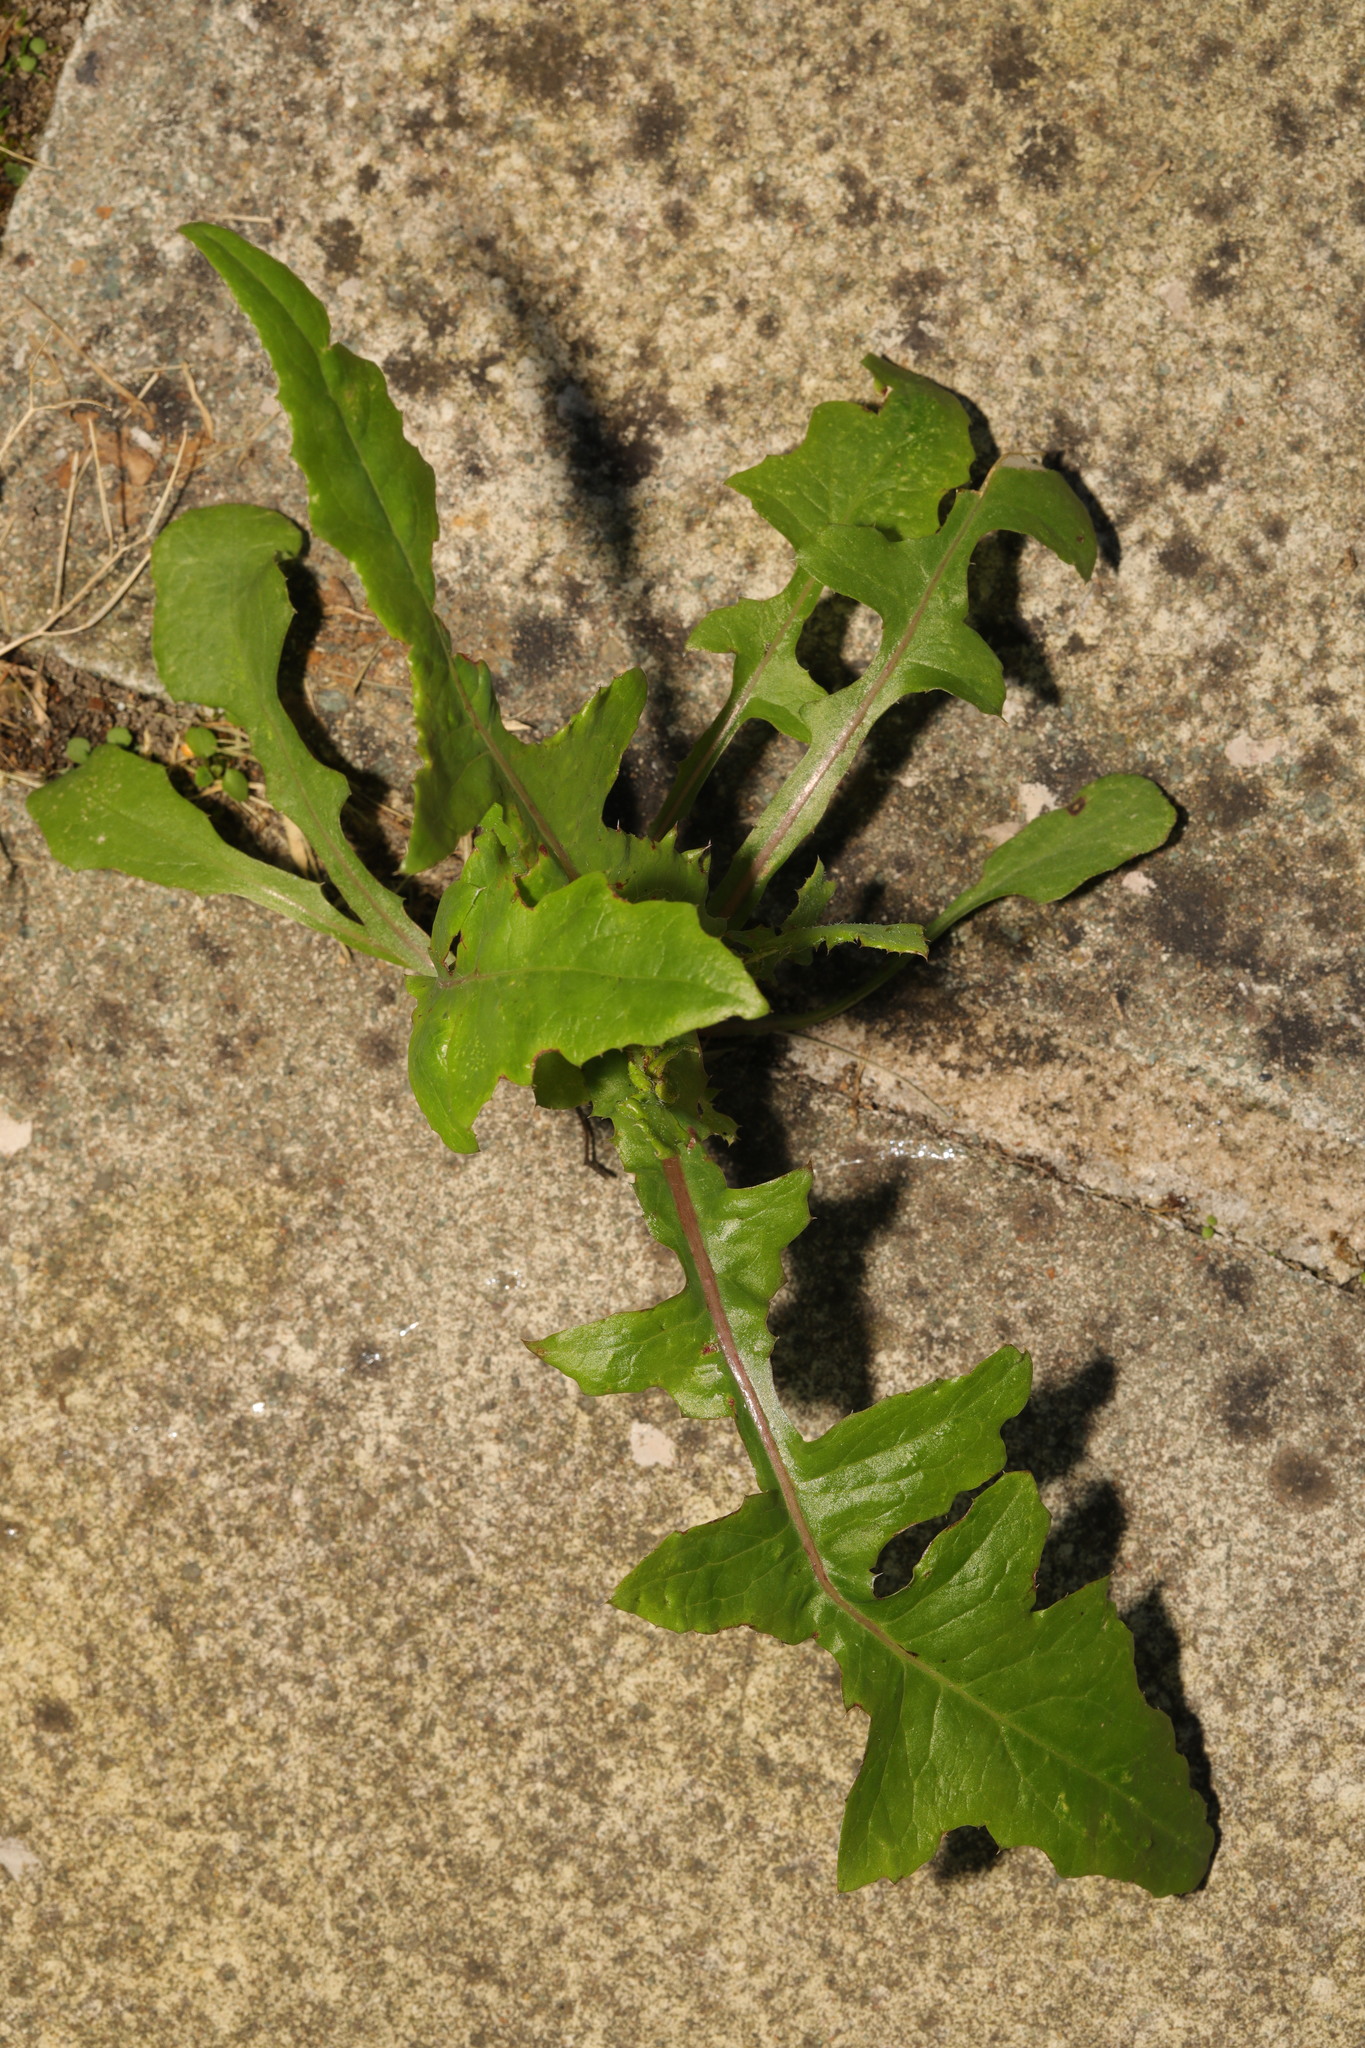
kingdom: Plantae
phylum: Tracheophyta
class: Magnoliopsida
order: Asterales
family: Asteraceae
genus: Taraxacum
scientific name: Taraxacum officinale
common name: Common dandelion
